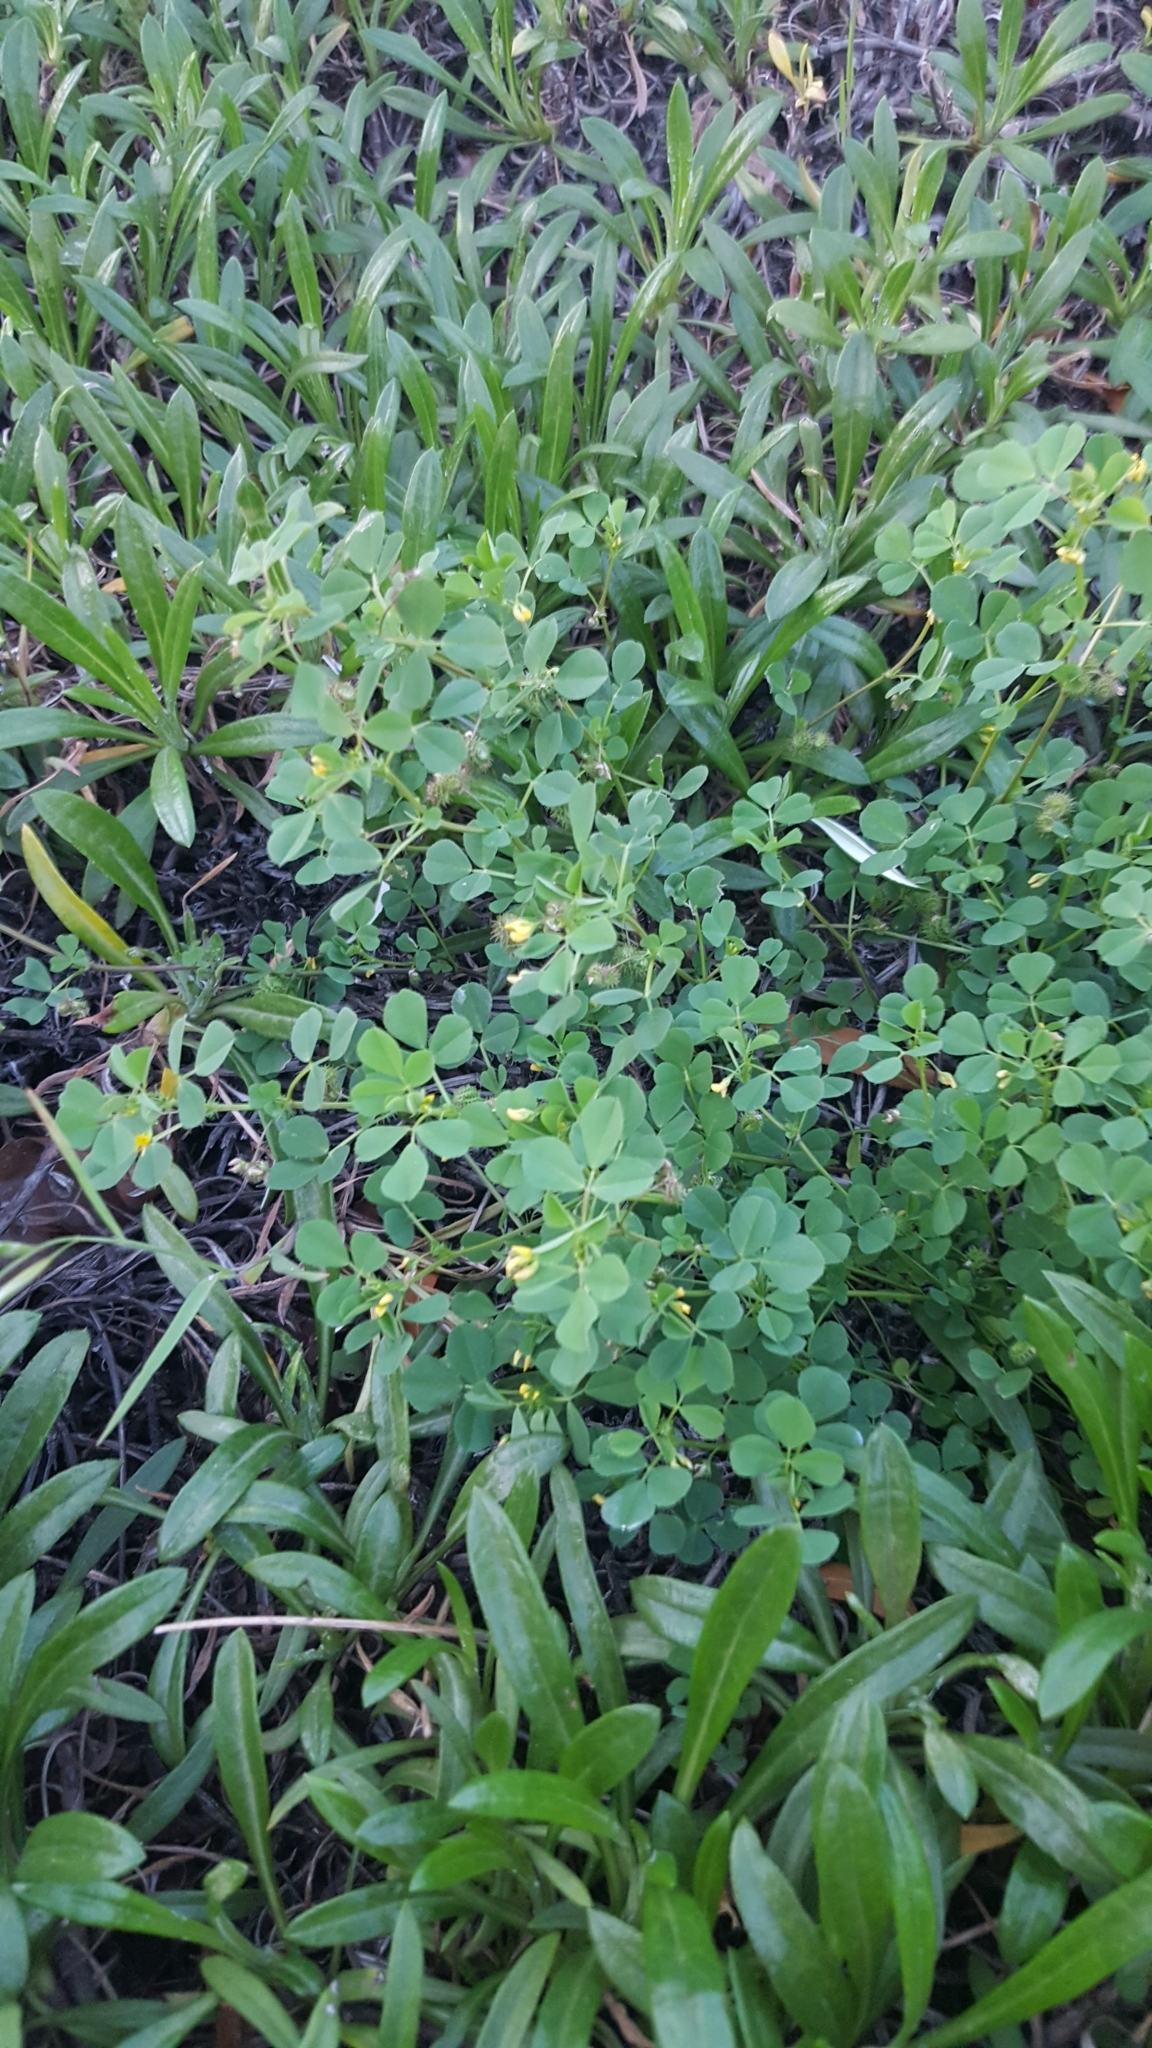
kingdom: Plantae
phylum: Tracheophyta
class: Magnoliopsida
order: Fabales
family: Fabaceae
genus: Medicago
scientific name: Medicago polymorpha
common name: Burclover
